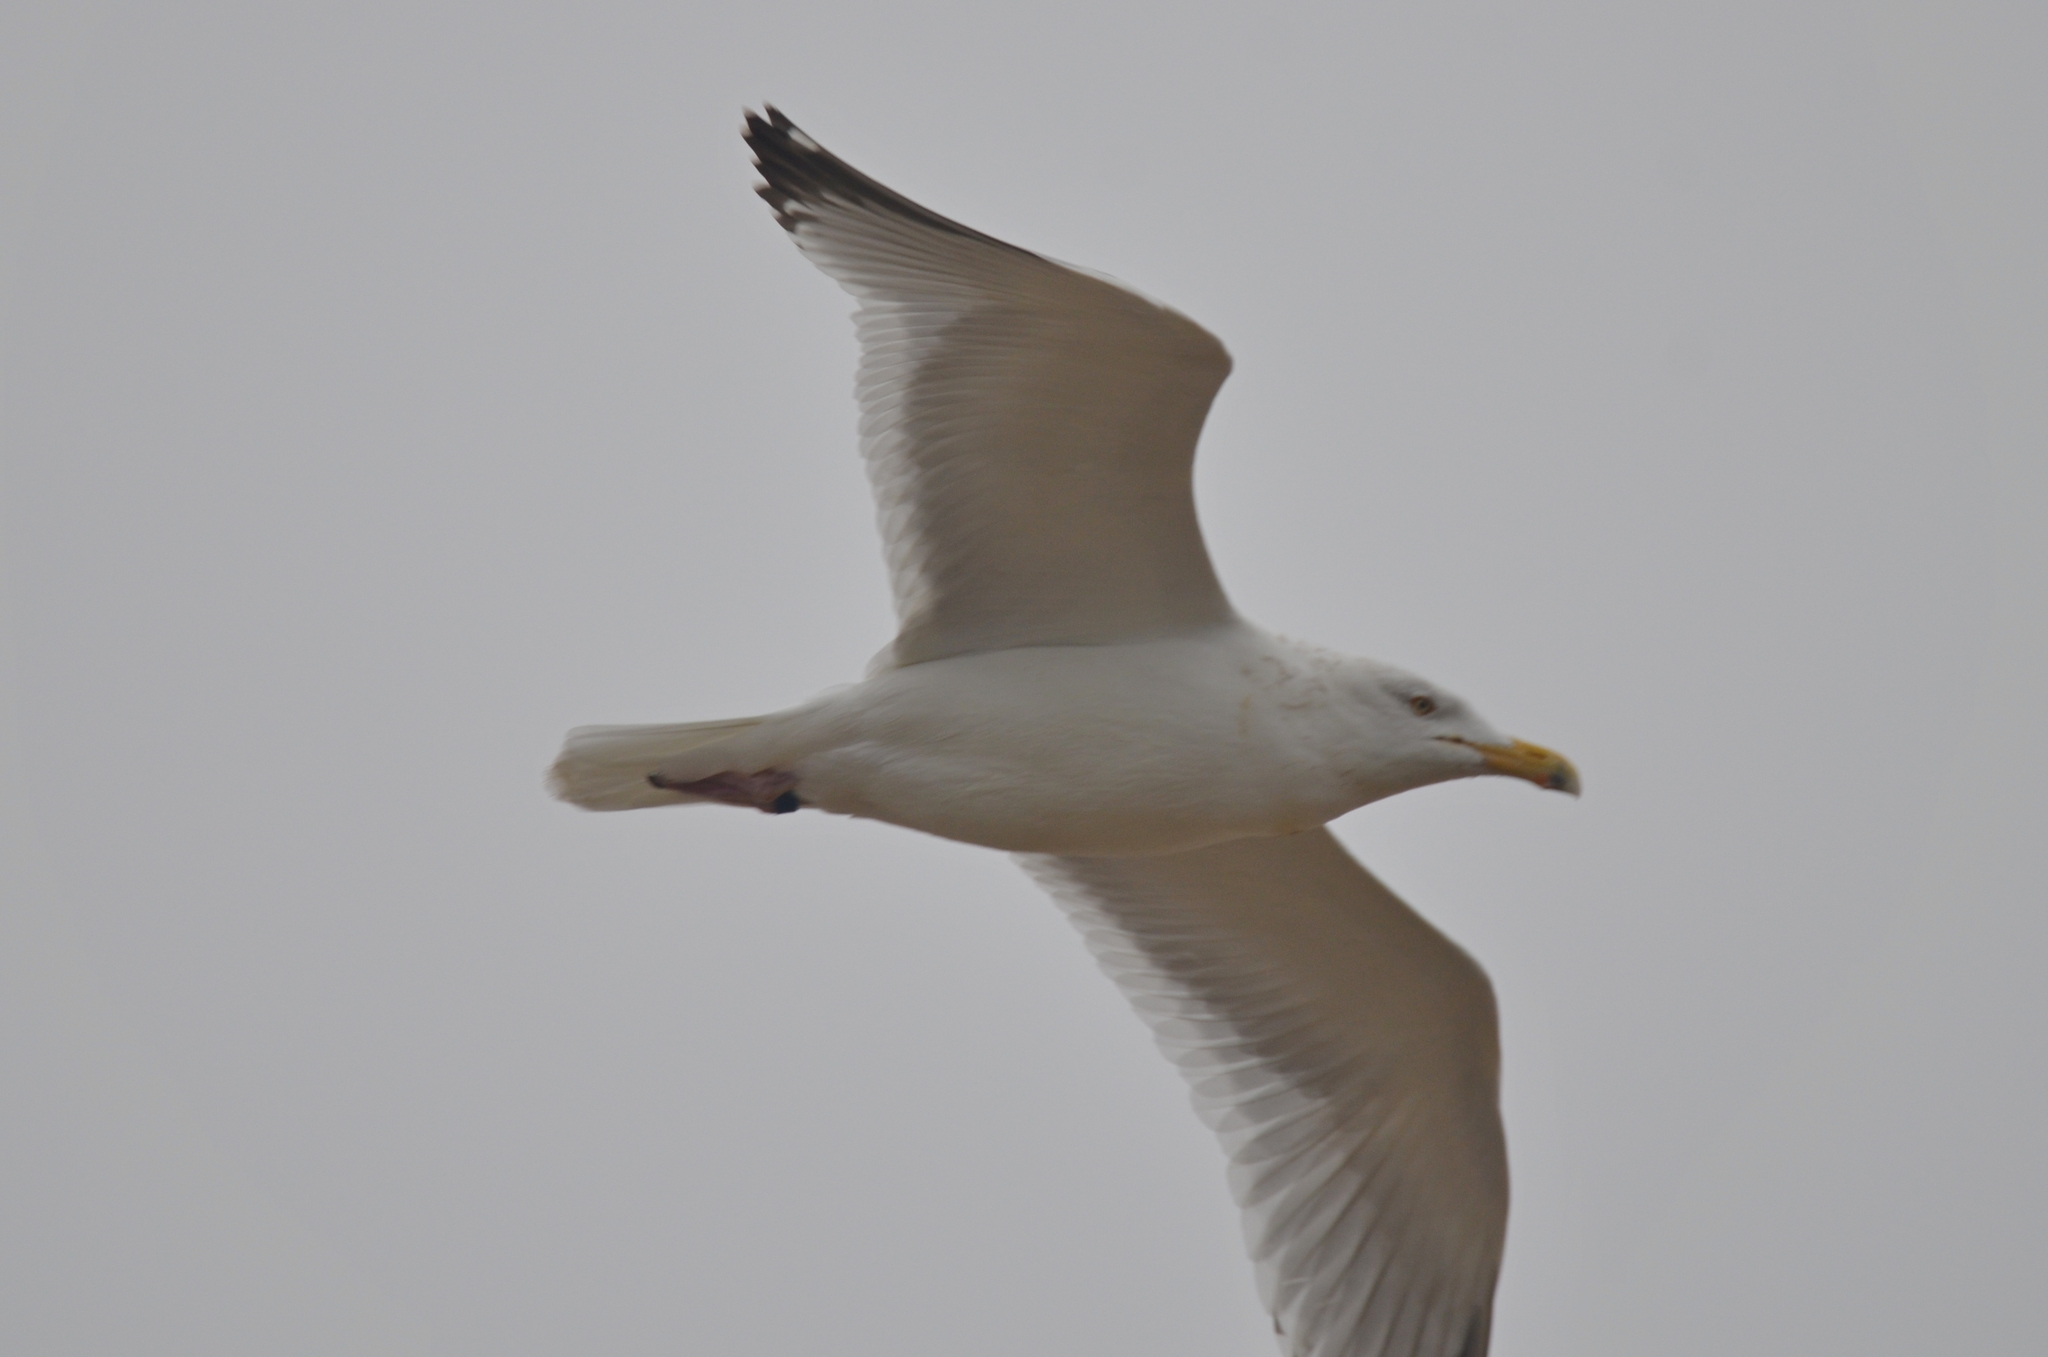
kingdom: Animalia
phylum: Chordata
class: Aves
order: Charadriiformes
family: Laridae
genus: Larus
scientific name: Larus argentatus
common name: Herring gull
